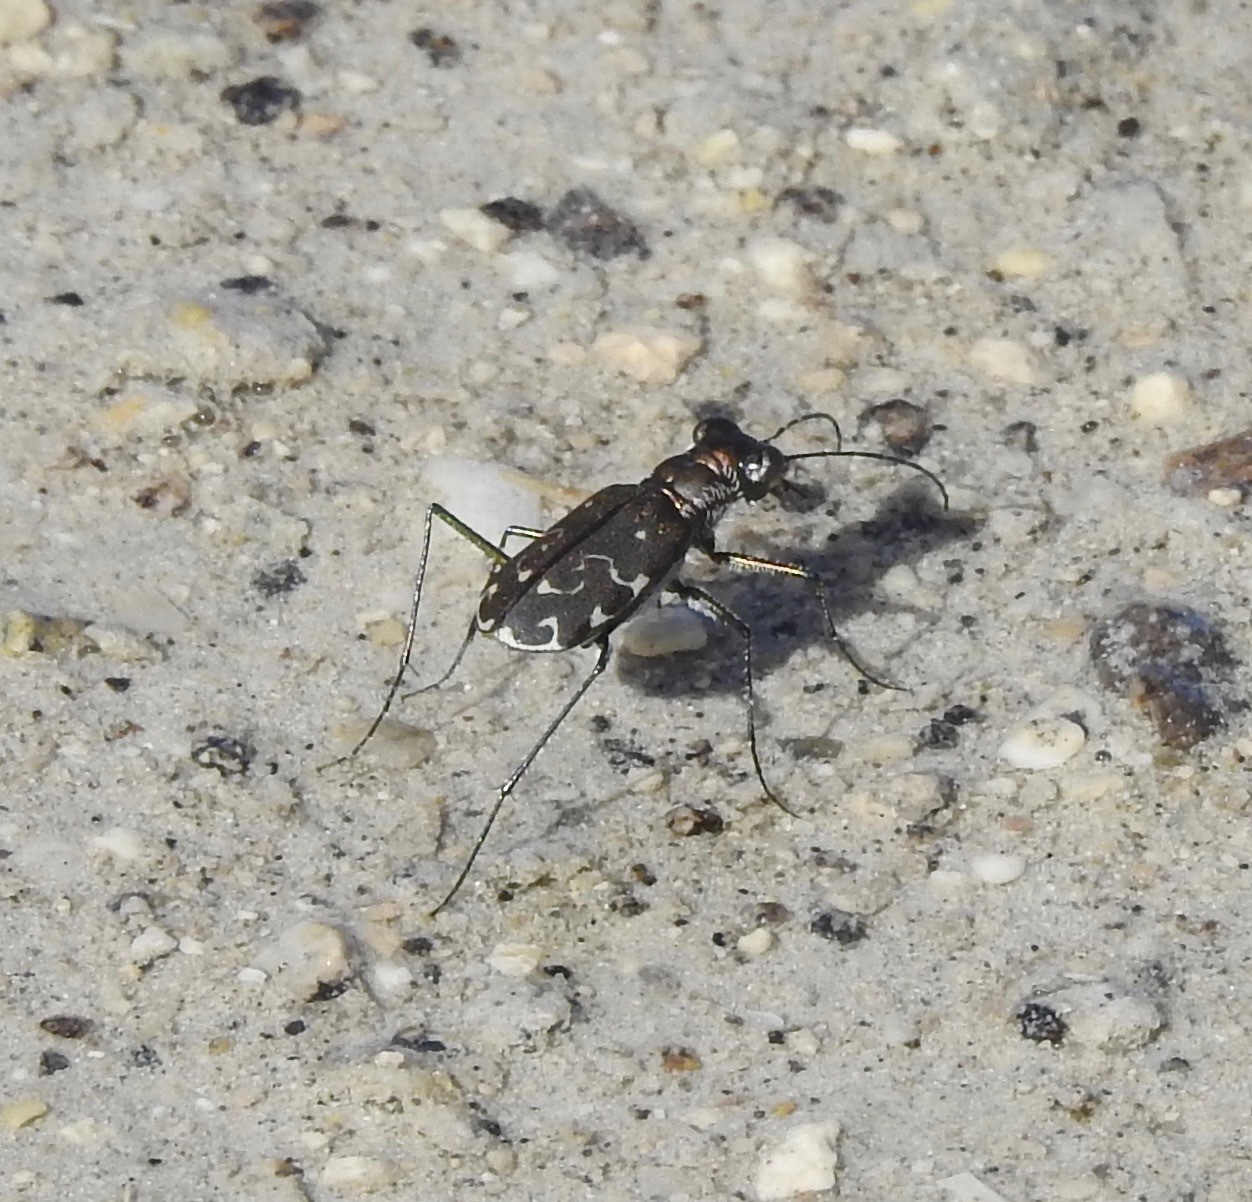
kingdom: Animalia
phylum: Arthropoda
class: Insecta
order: Coleoptera
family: Carabidae
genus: Cicindela
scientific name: Cicindela trifasciata
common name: Mudflat tiger beetle
